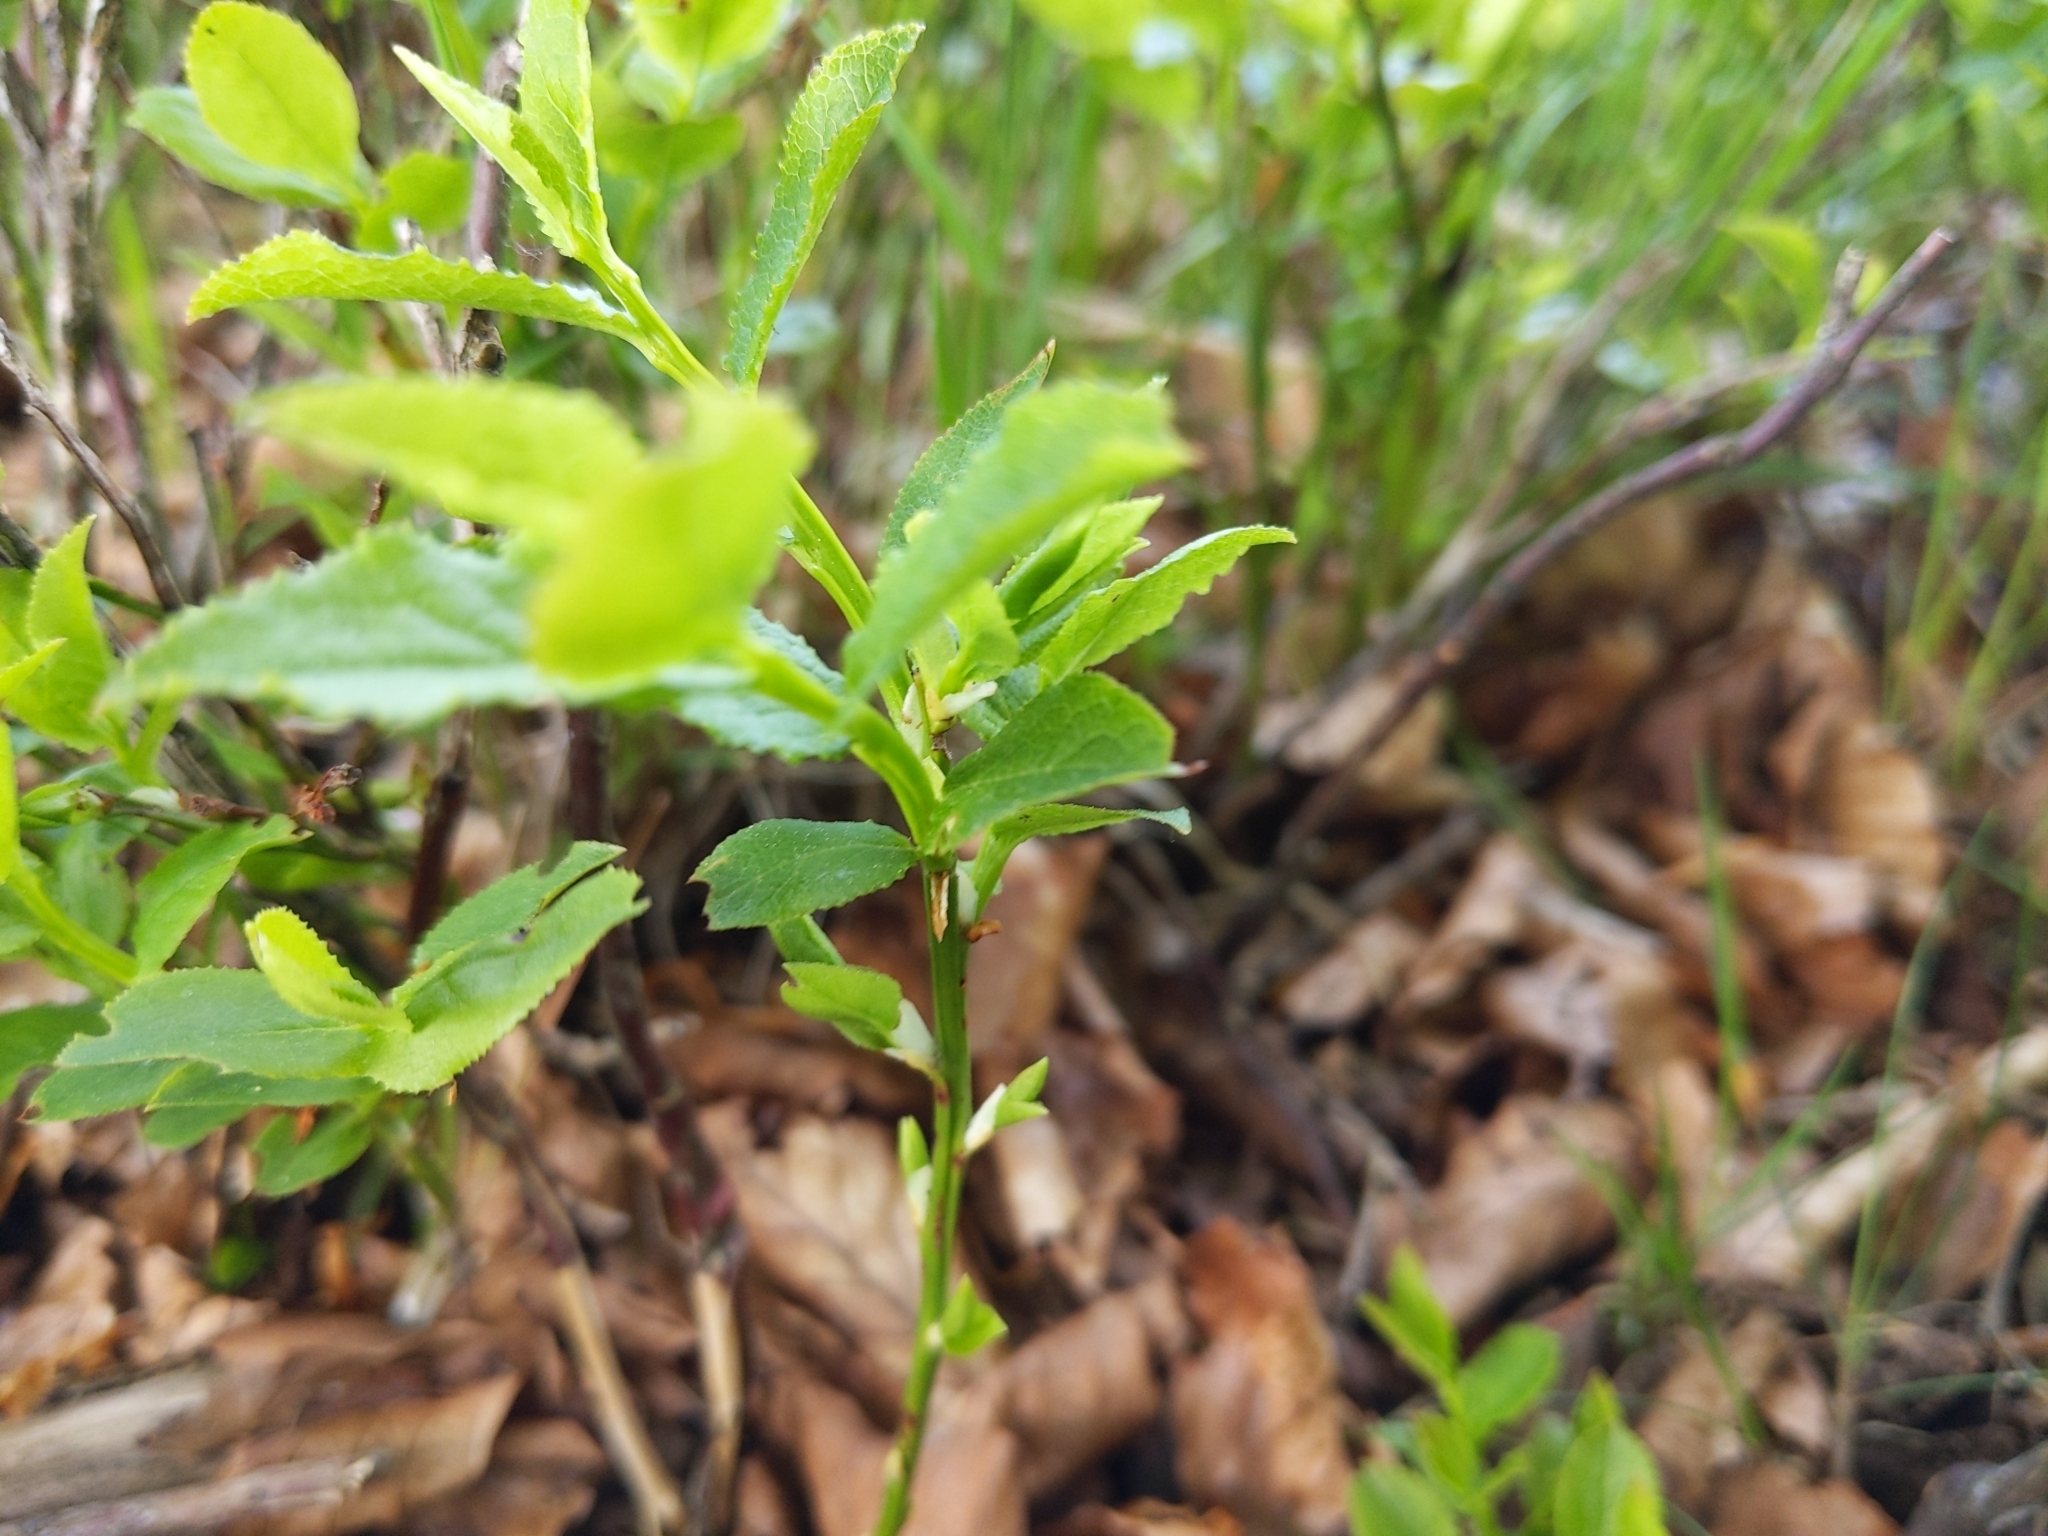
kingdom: Plantae
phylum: Tracheophyta
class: Magnoliopsida
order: Ericales
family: Ericaceae
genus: Vaccinium
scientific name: Vaccinium myrtillus
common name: Bilberry
